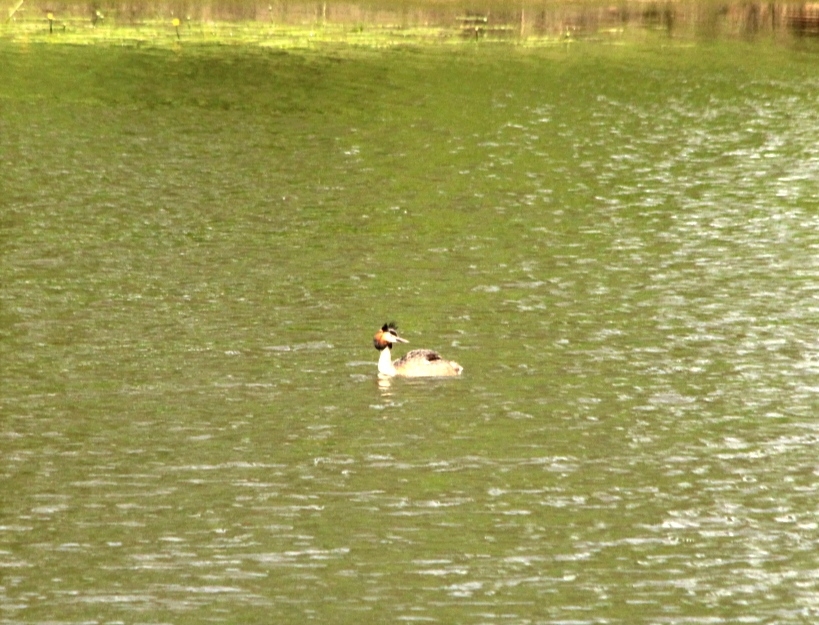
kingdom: Animalia
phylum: Chordata
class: Aves
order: Podicipediformes
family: Podicipedidae
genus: Podiceps
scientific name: Podiceps cristatus
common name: Great crested grebe
